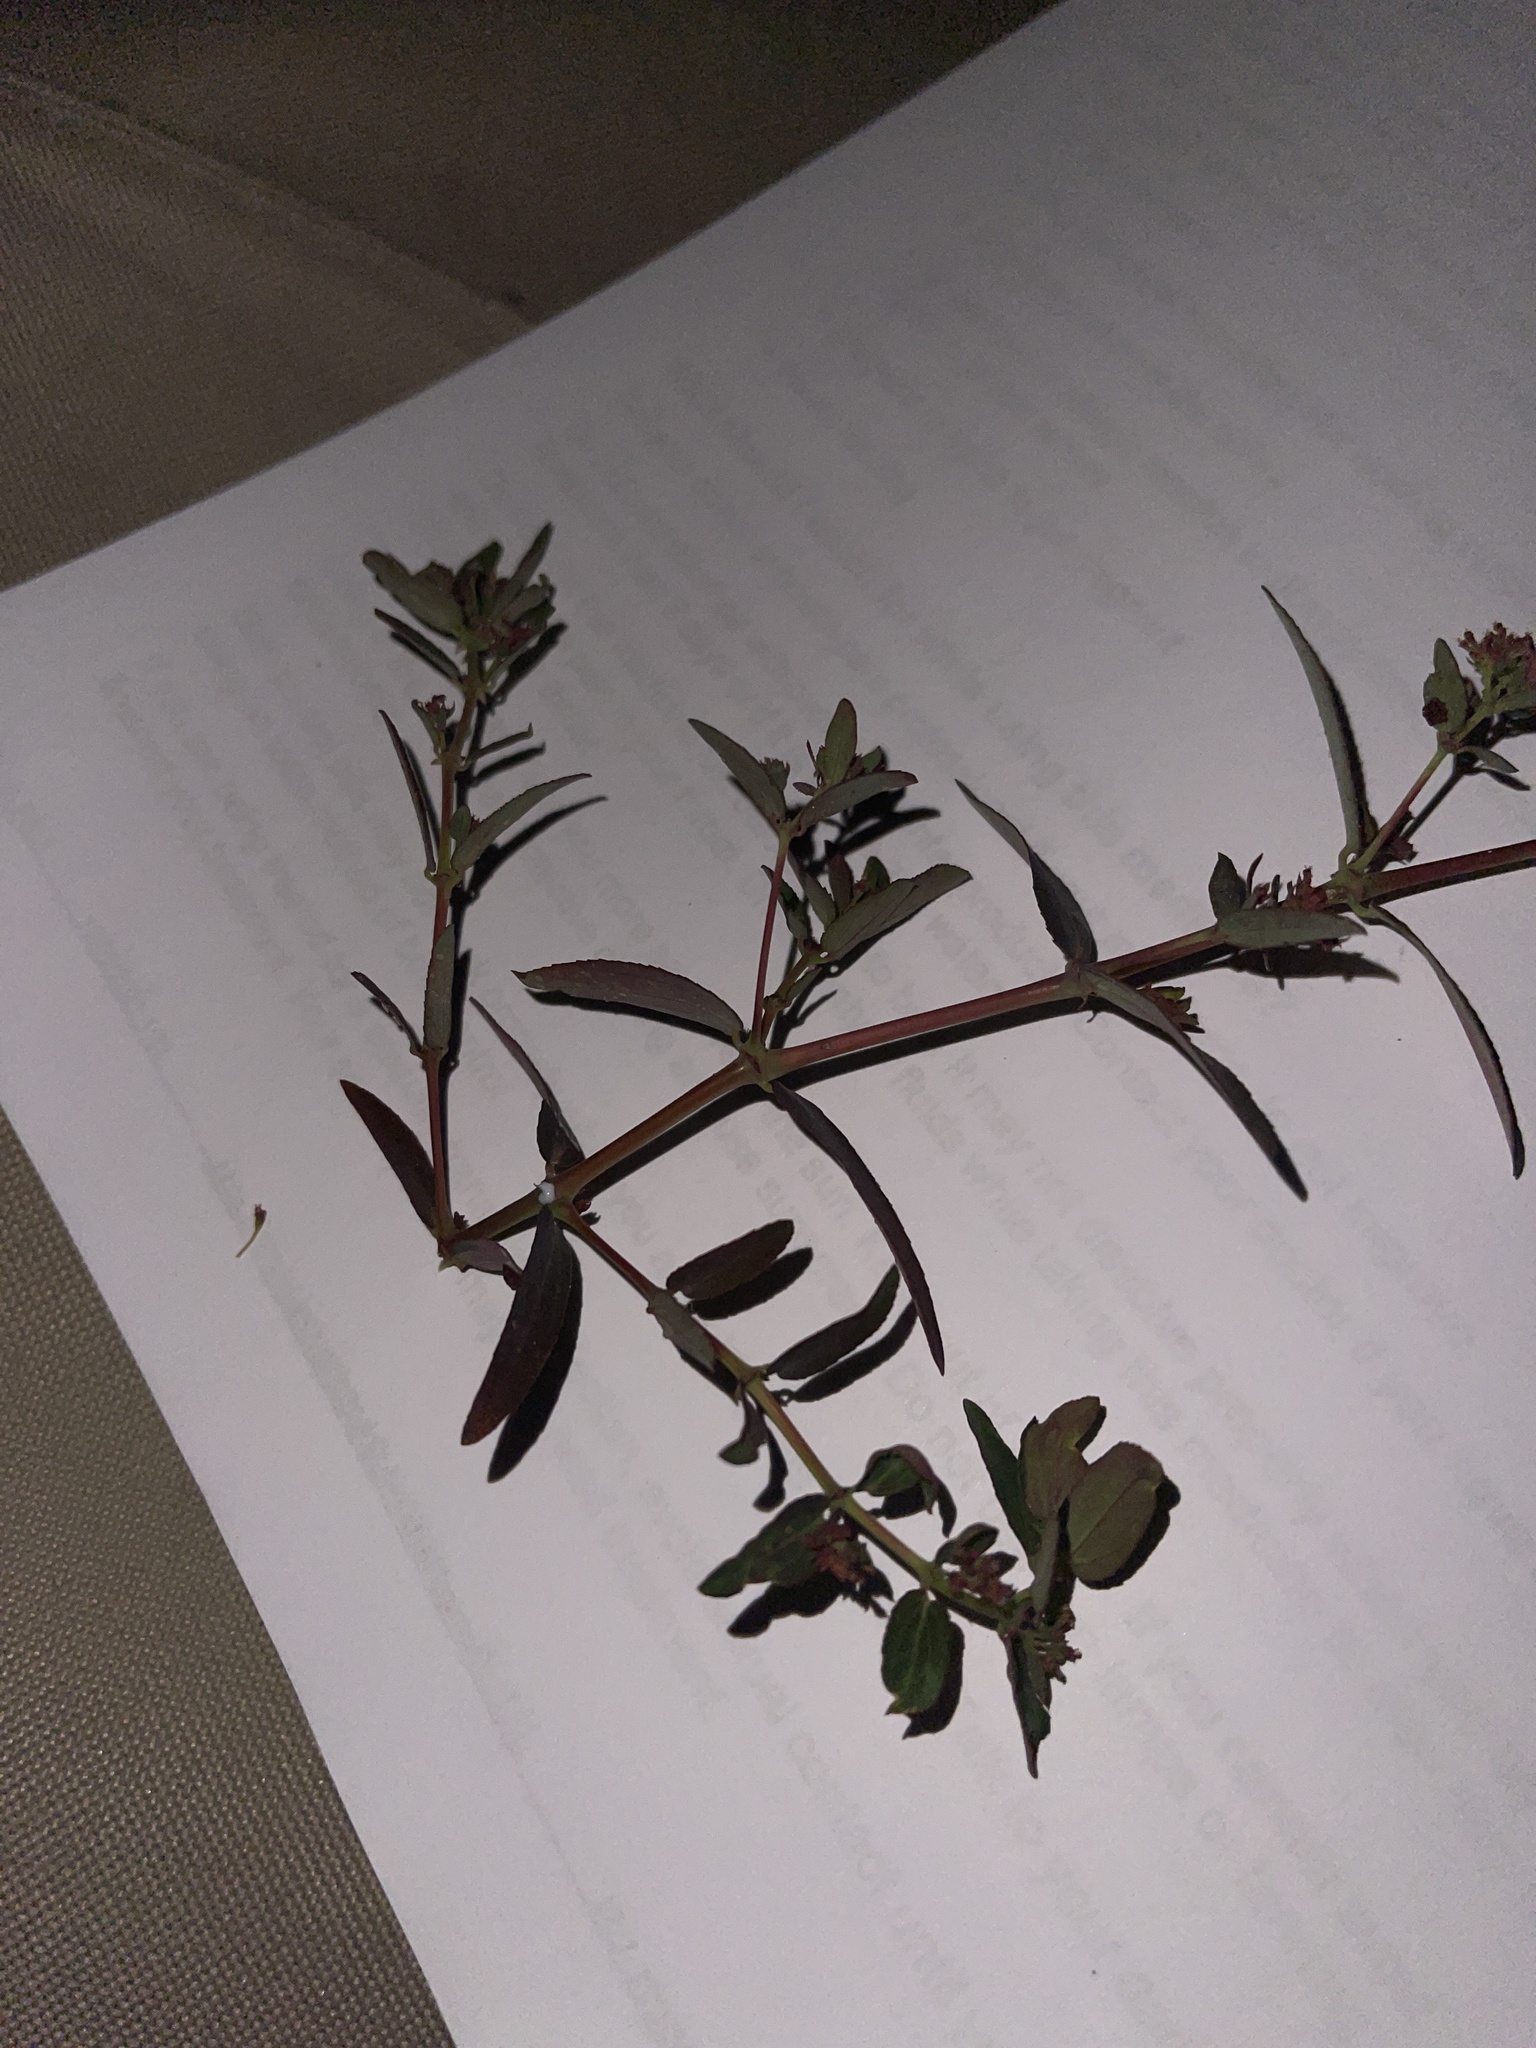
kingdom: Plantae
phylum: Tracheophyta
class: Magnoliopsida
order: Malpighiales
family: Euphorbiaceae
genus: Euphorbia
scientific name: Euphorbia hypericifolia
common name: Graceful sandmat
